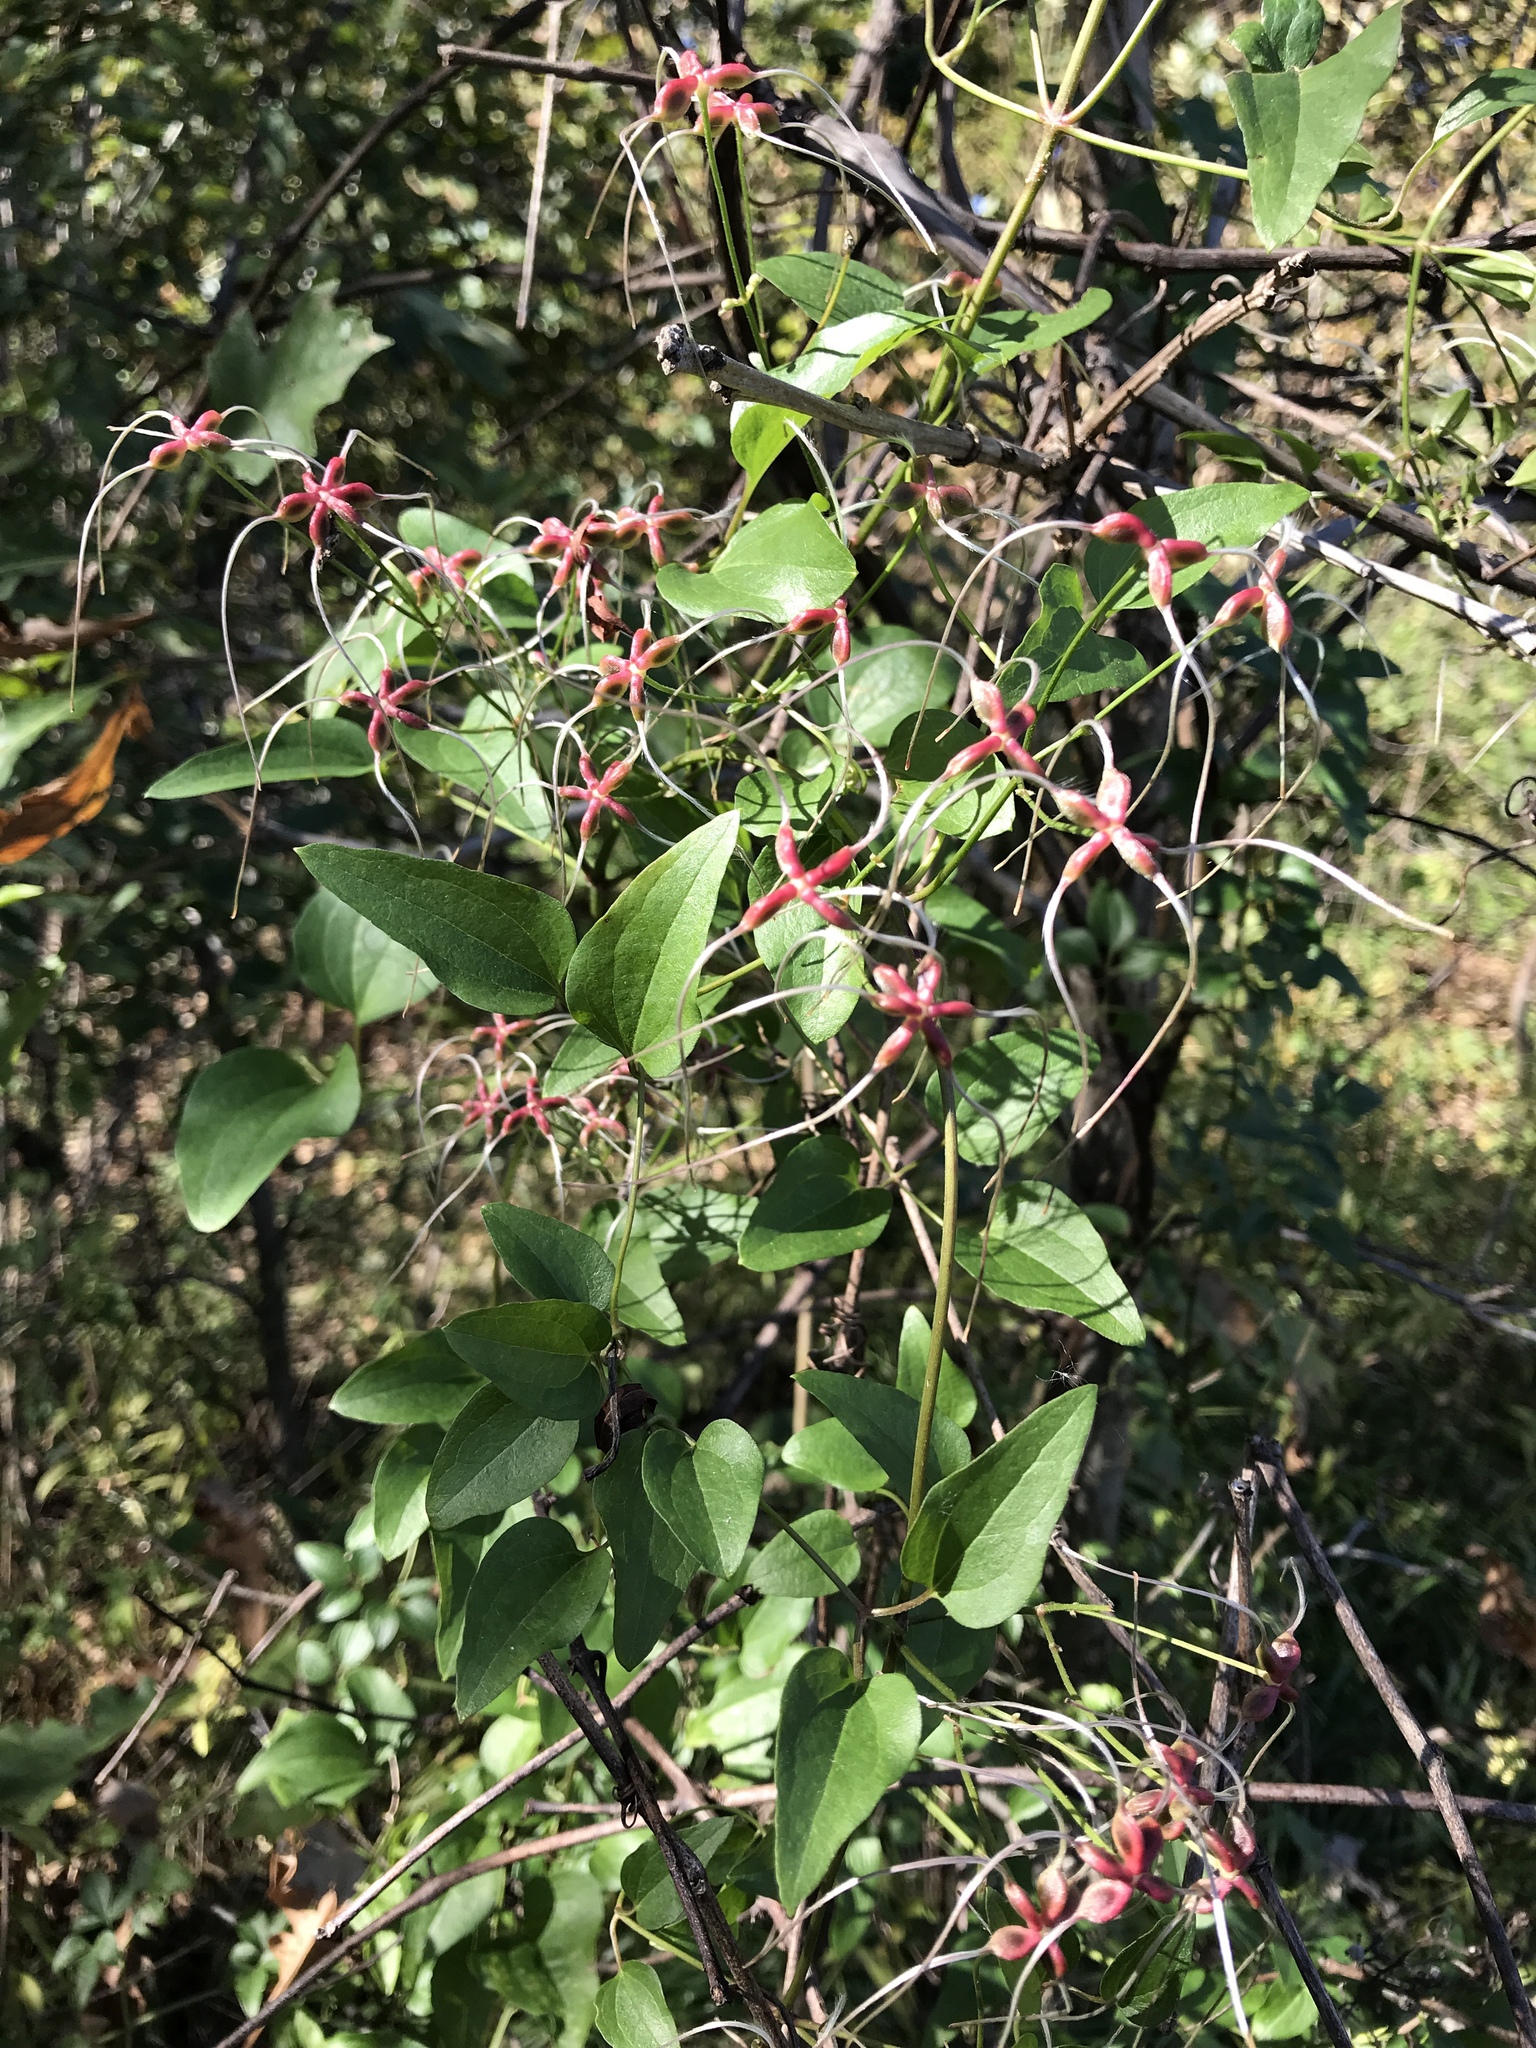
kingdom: Plantae
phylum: Tracheophyta
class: Magnoliopsida
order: Ranunculales
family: Ranunculaceae
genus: Clematis
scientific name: Clematis terniflora
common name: Sweet autumn clematis
